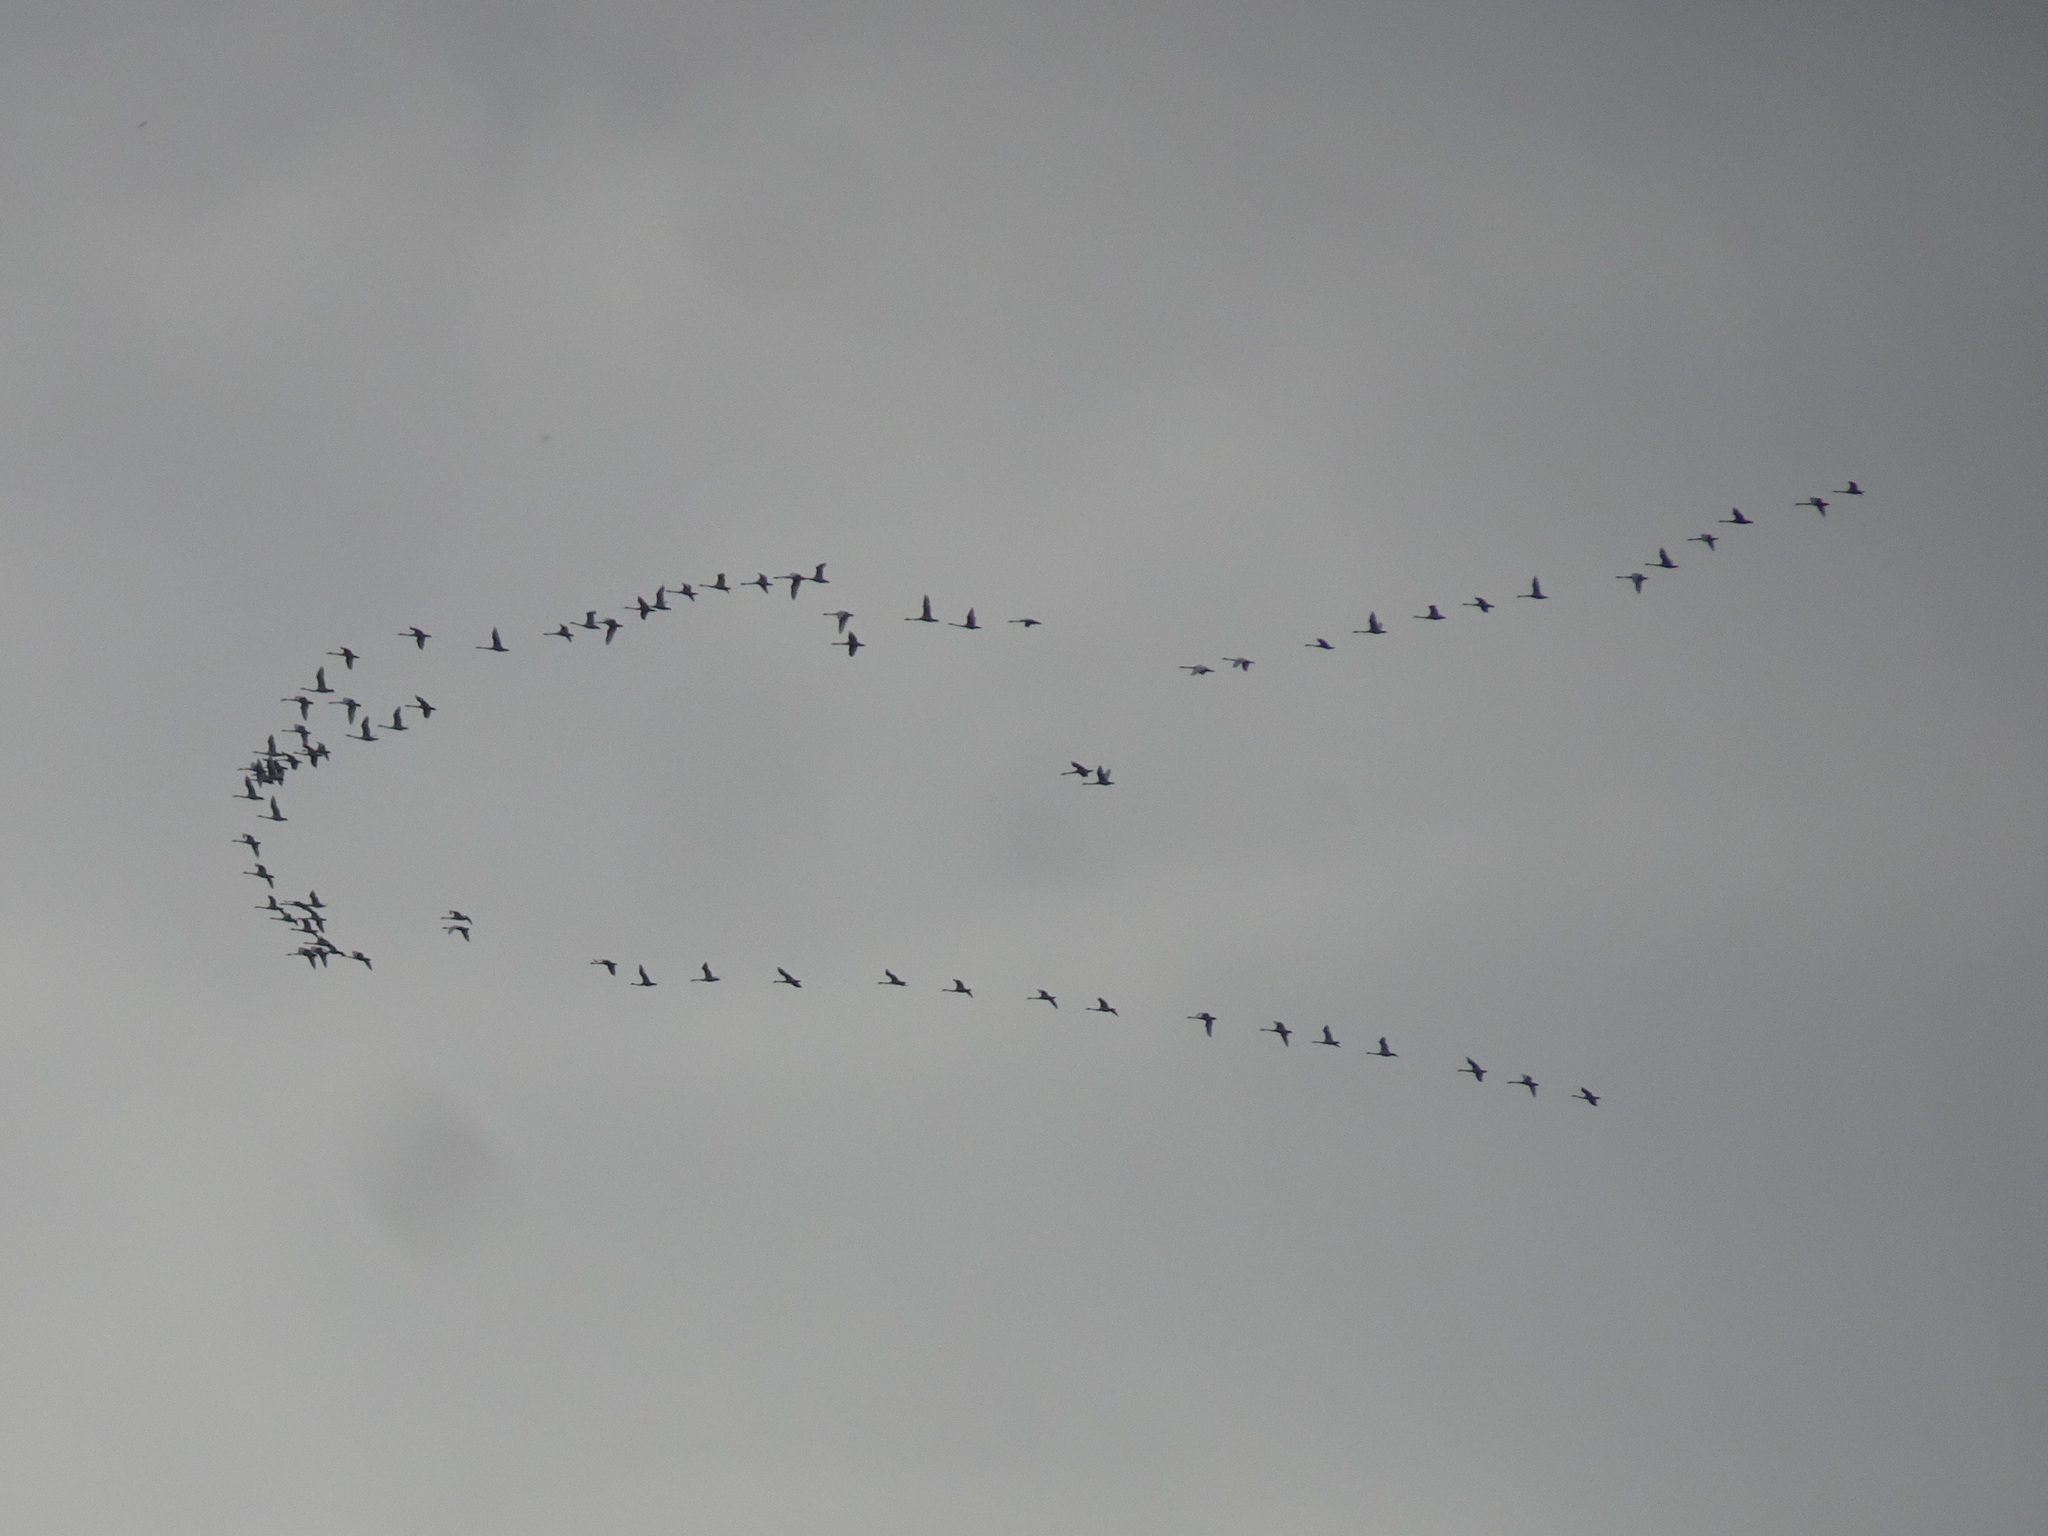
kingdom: Animalia
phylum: Chordata
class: Aves
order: Anseriformes
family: Anatidae
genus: Cygnus
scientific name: Cygnus columbianus
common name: Tundra swan
